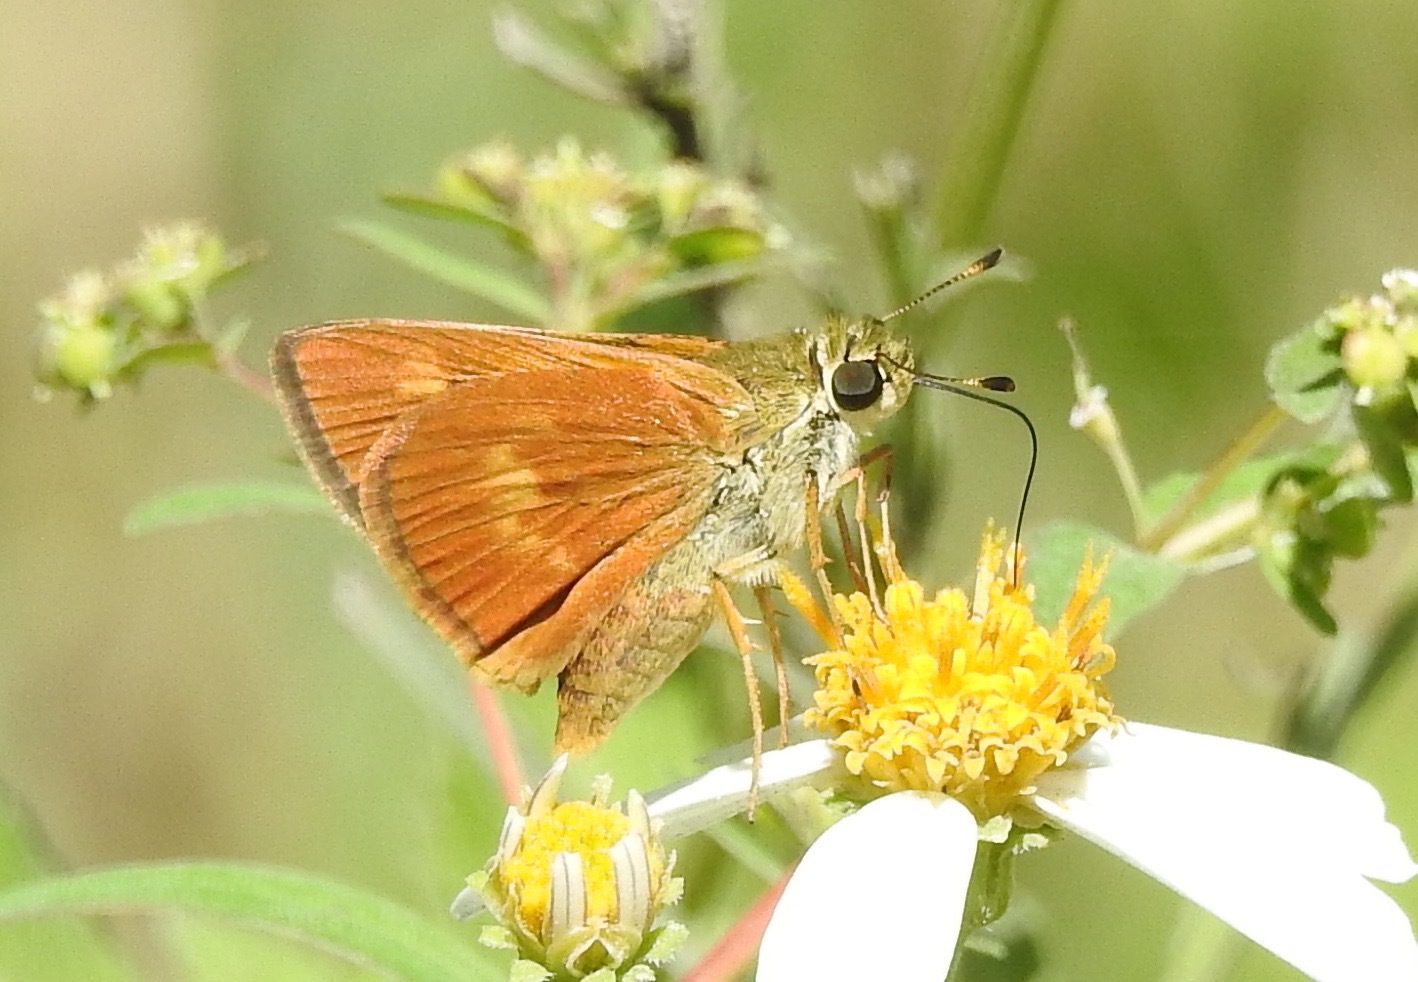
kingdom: Animalia
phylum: Arthropoda
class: Insecta
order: Lepidoptera
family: Hesperiidae
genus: Polites
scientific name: Polites otho
